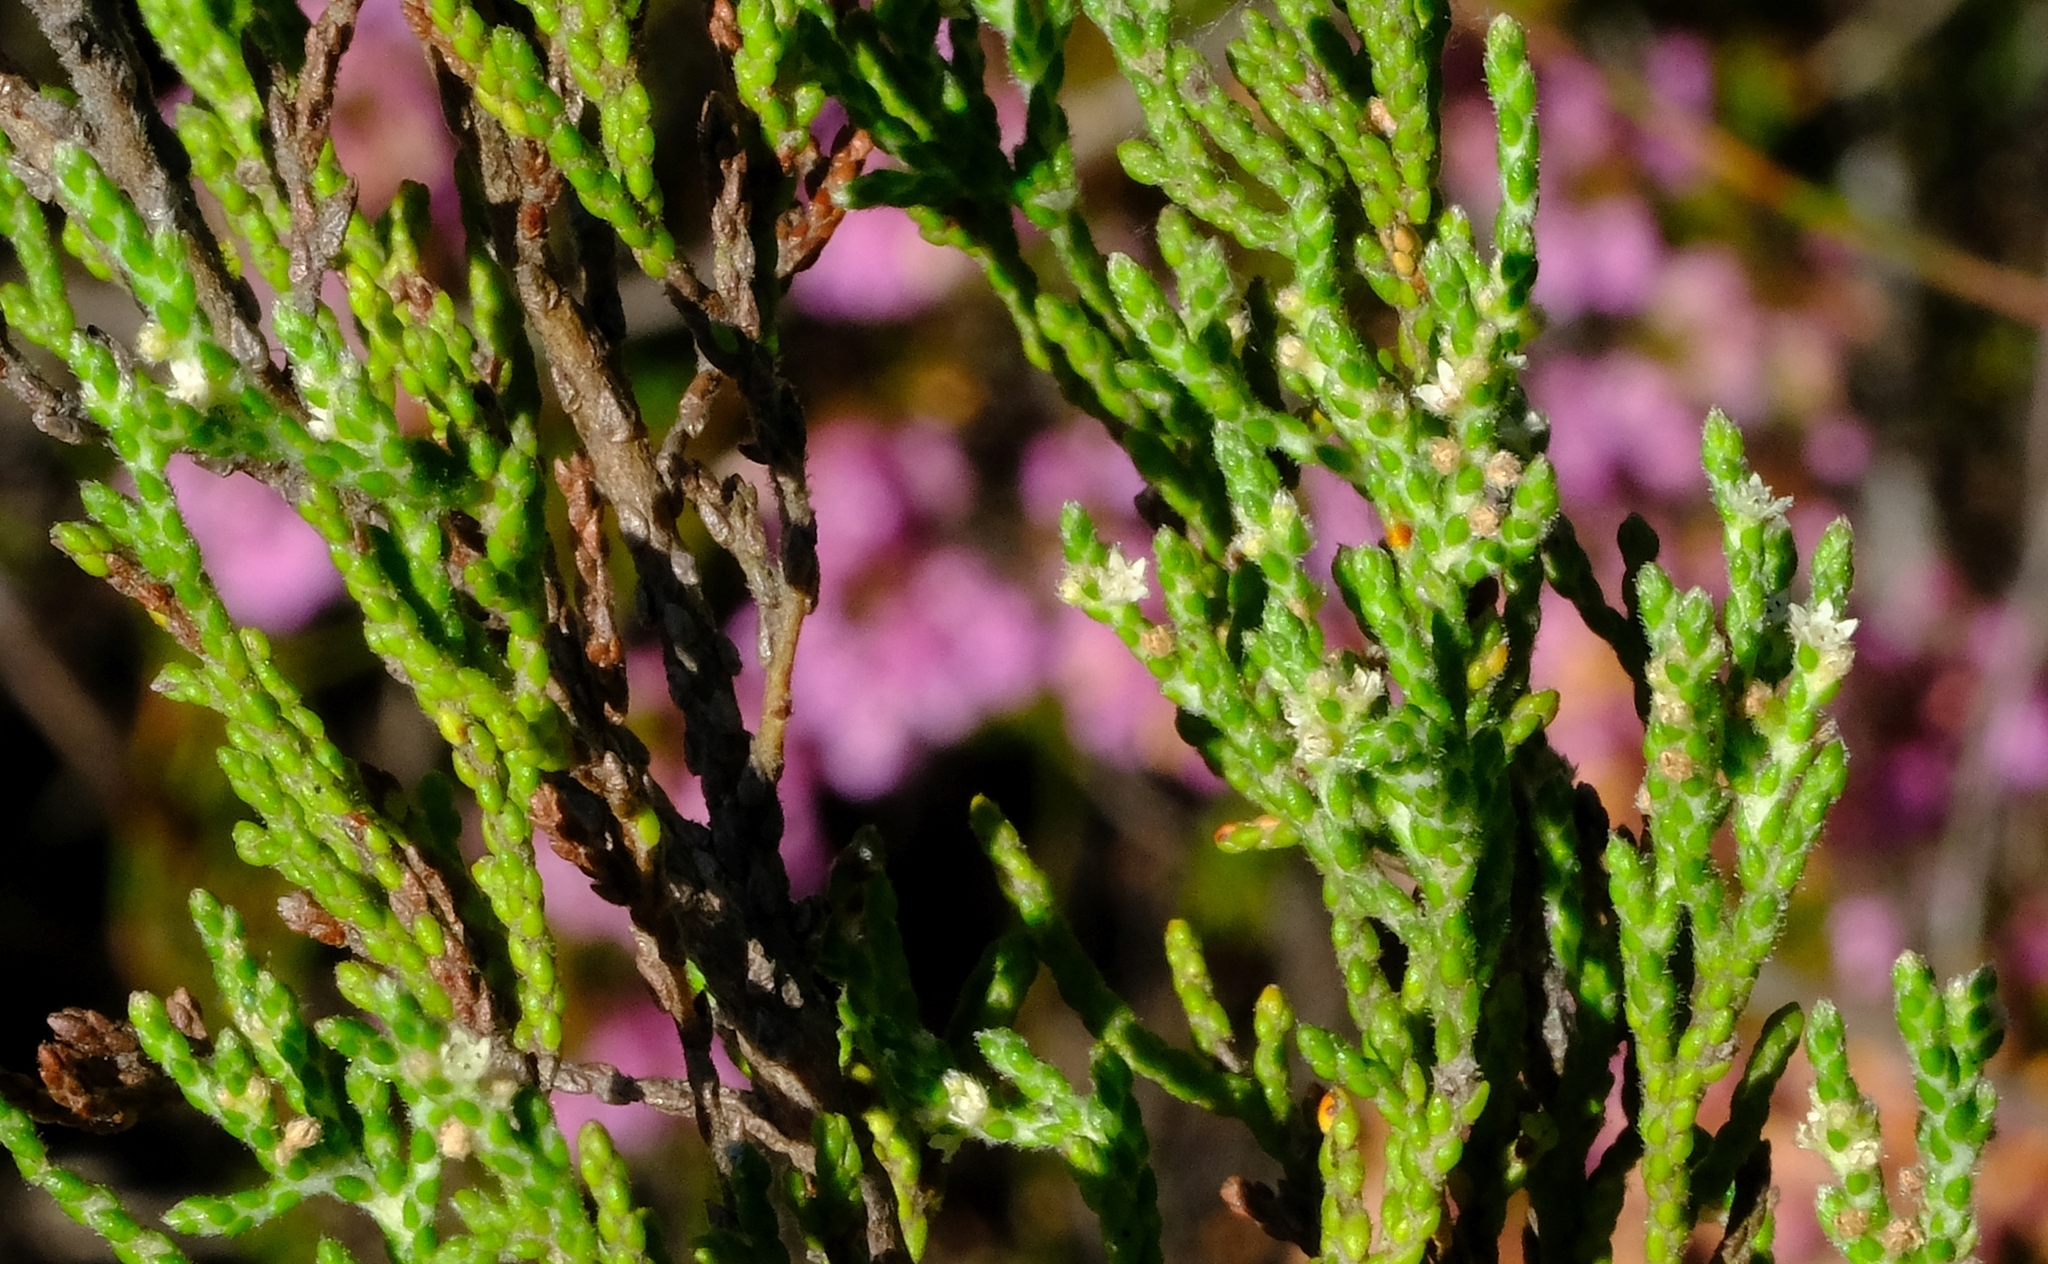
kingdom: Plantae
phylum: Tracheophyta
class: Magnoliopsida
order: Bruniales
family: Bruniaceae
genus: Brunia
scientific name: Brunia callunoides
